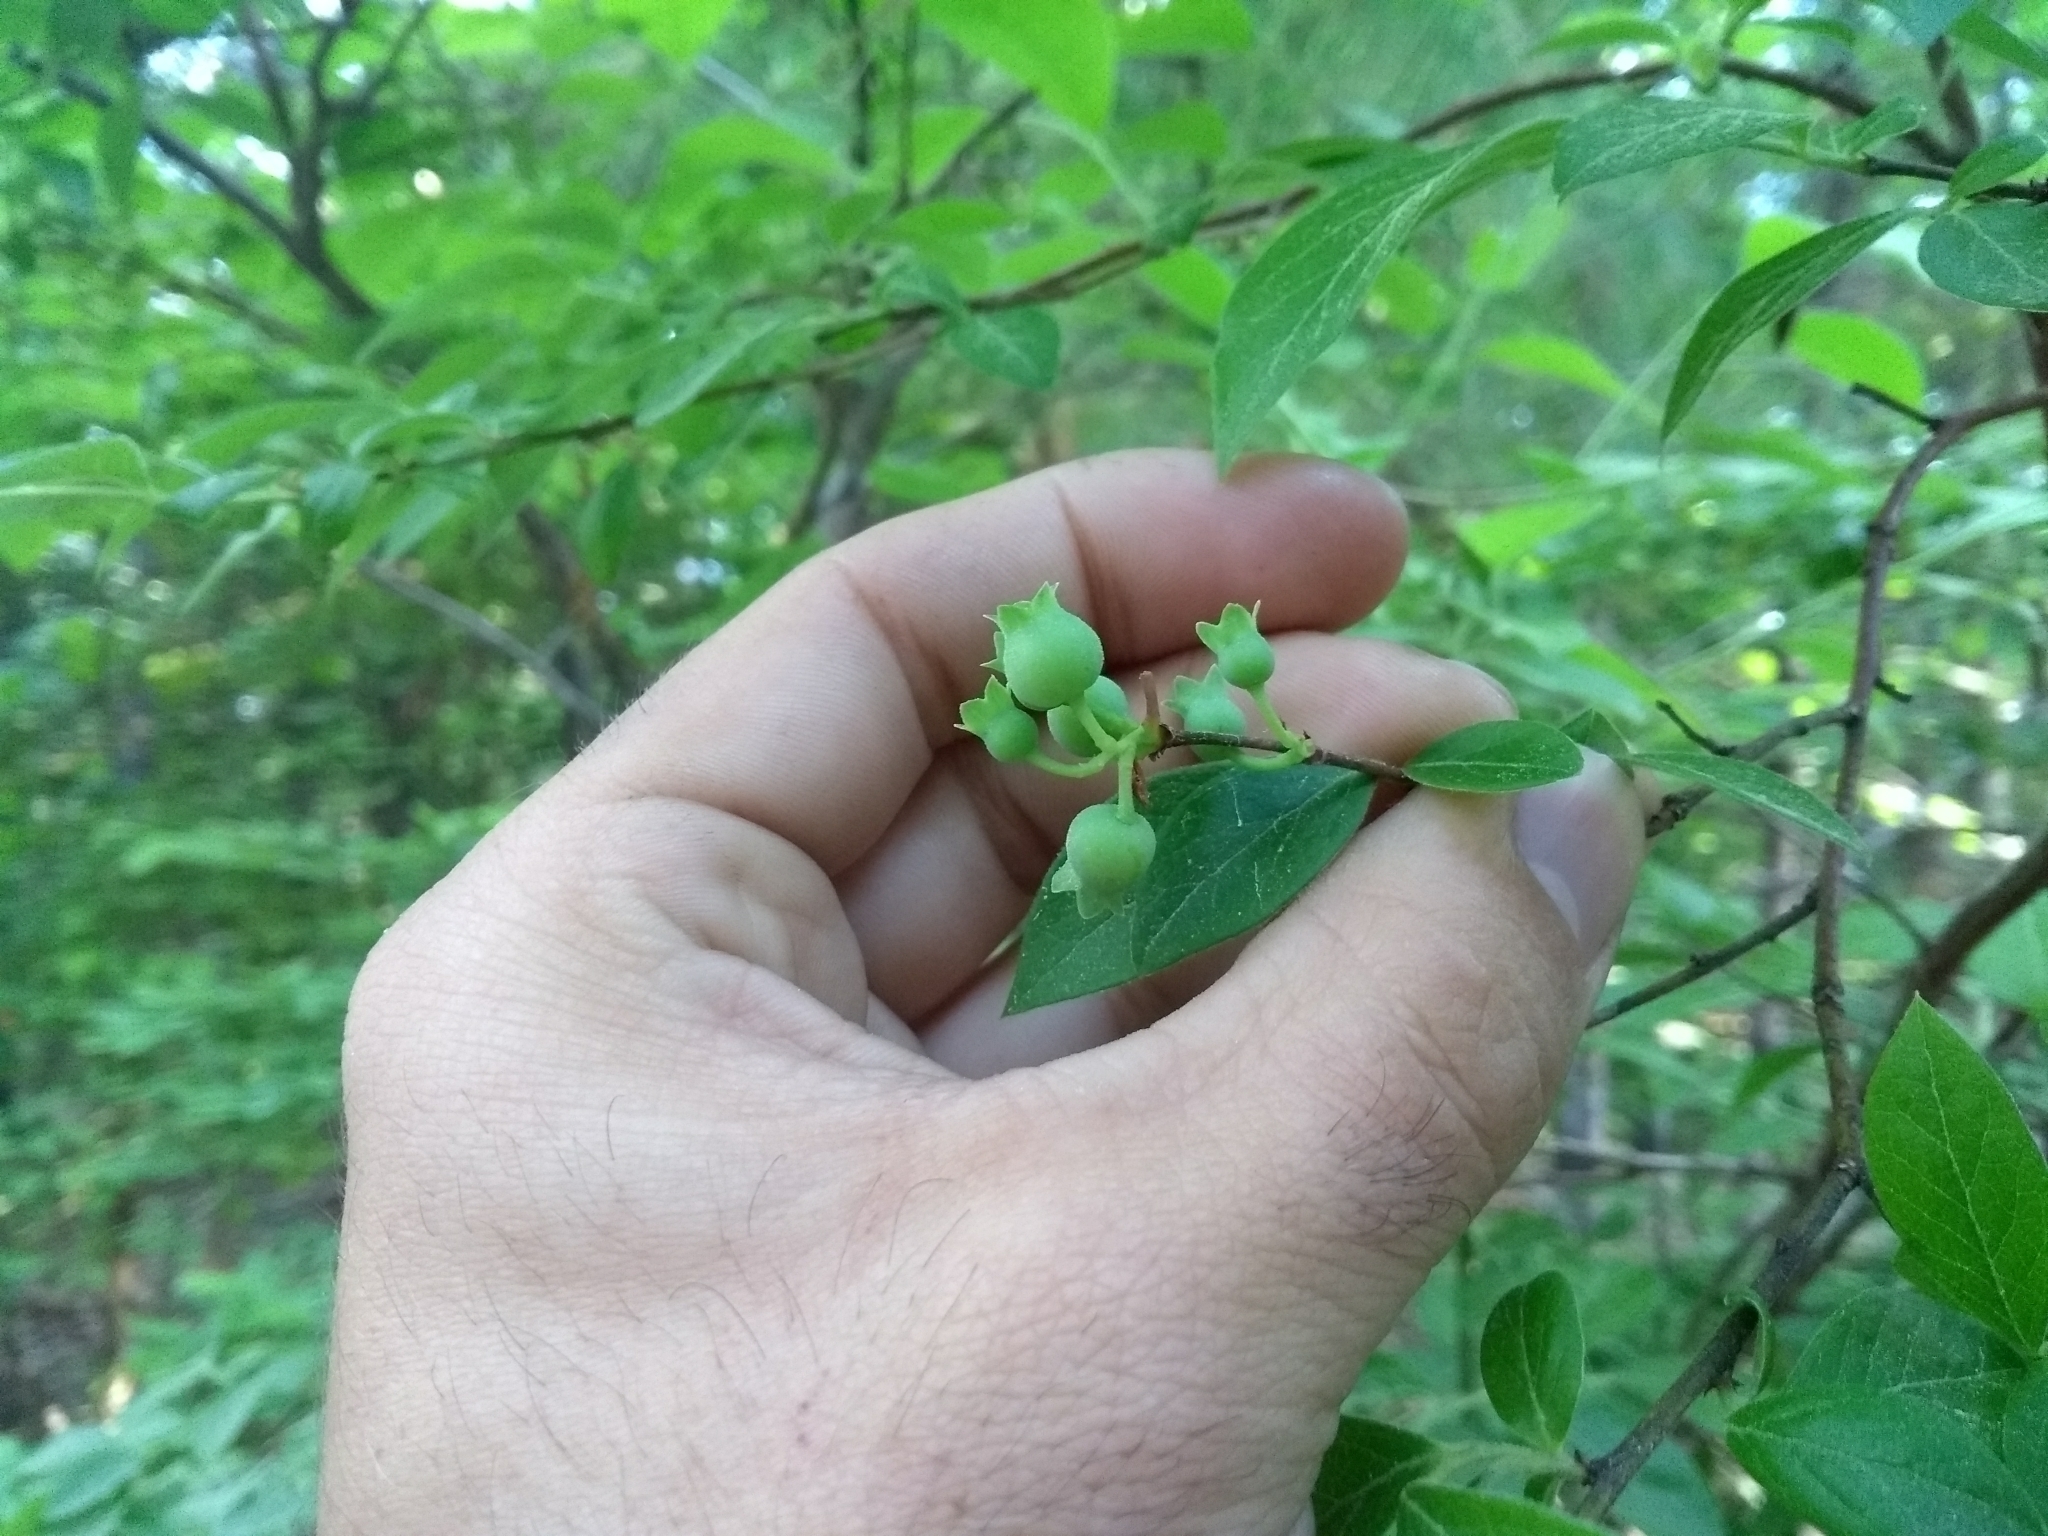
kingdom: Plantae
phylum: Tracheophyta
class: Magnoliopsida
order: Ericales
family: Ericaceae
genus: Vaccinium
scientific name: Vaccinium corymbosum
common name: Blueberry
